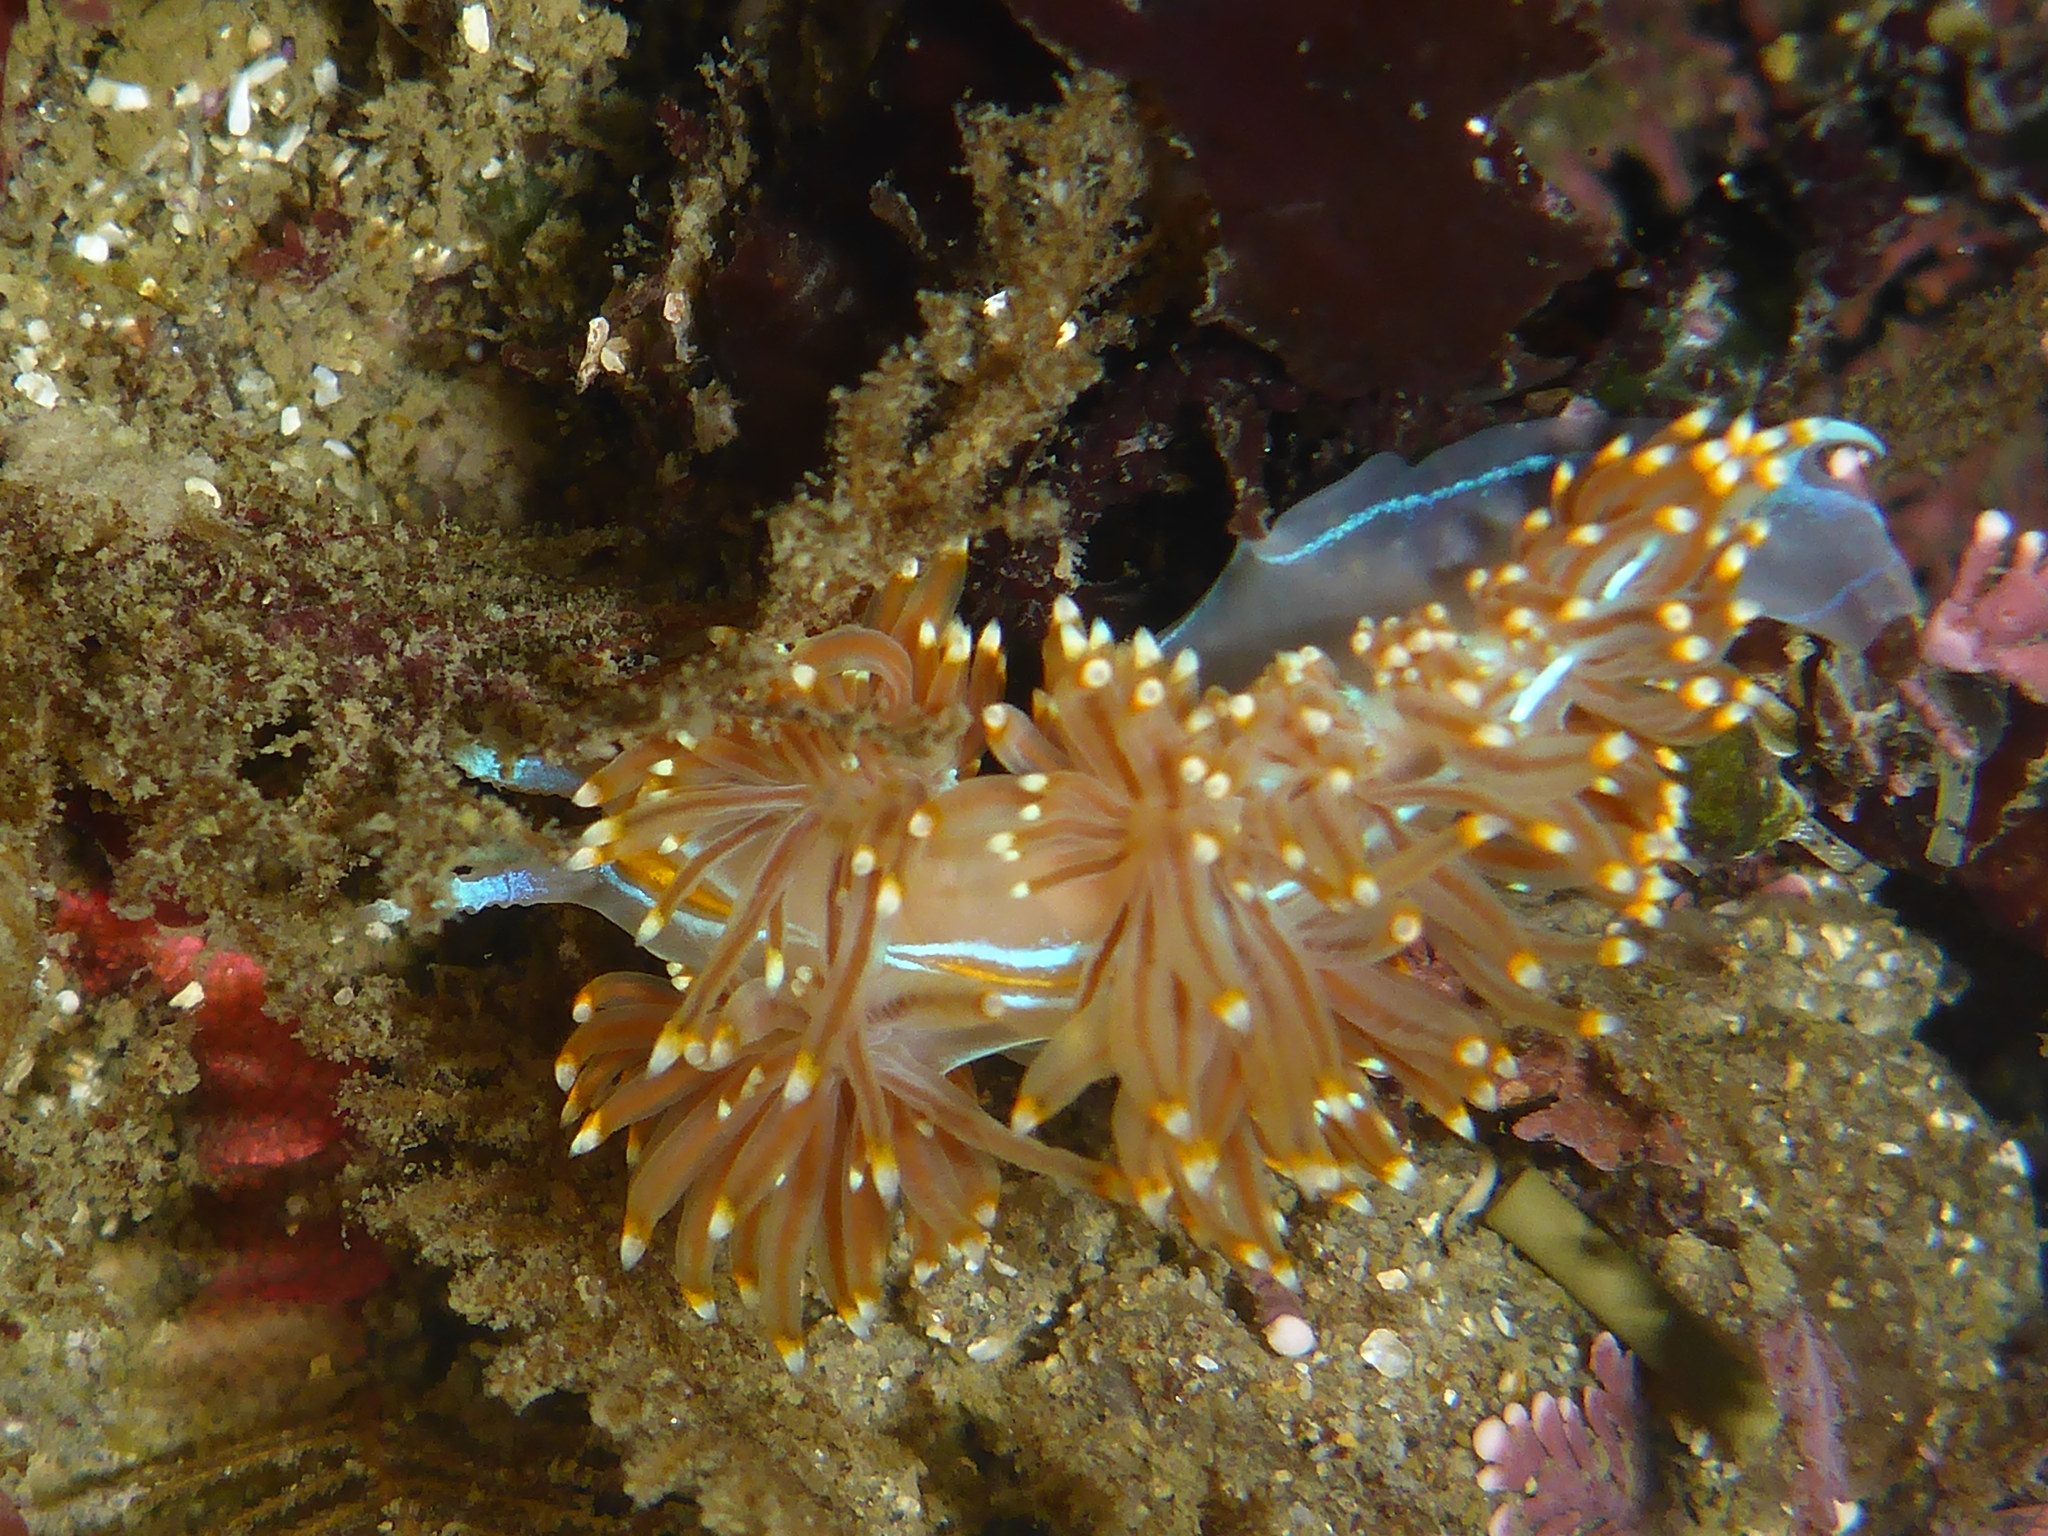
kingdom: Animalia
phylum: Mollusca
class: Gastropoda
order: Nudibranchia
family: Myrrhinidae
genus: Hermissenda
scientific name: Hermissenda opalescens
